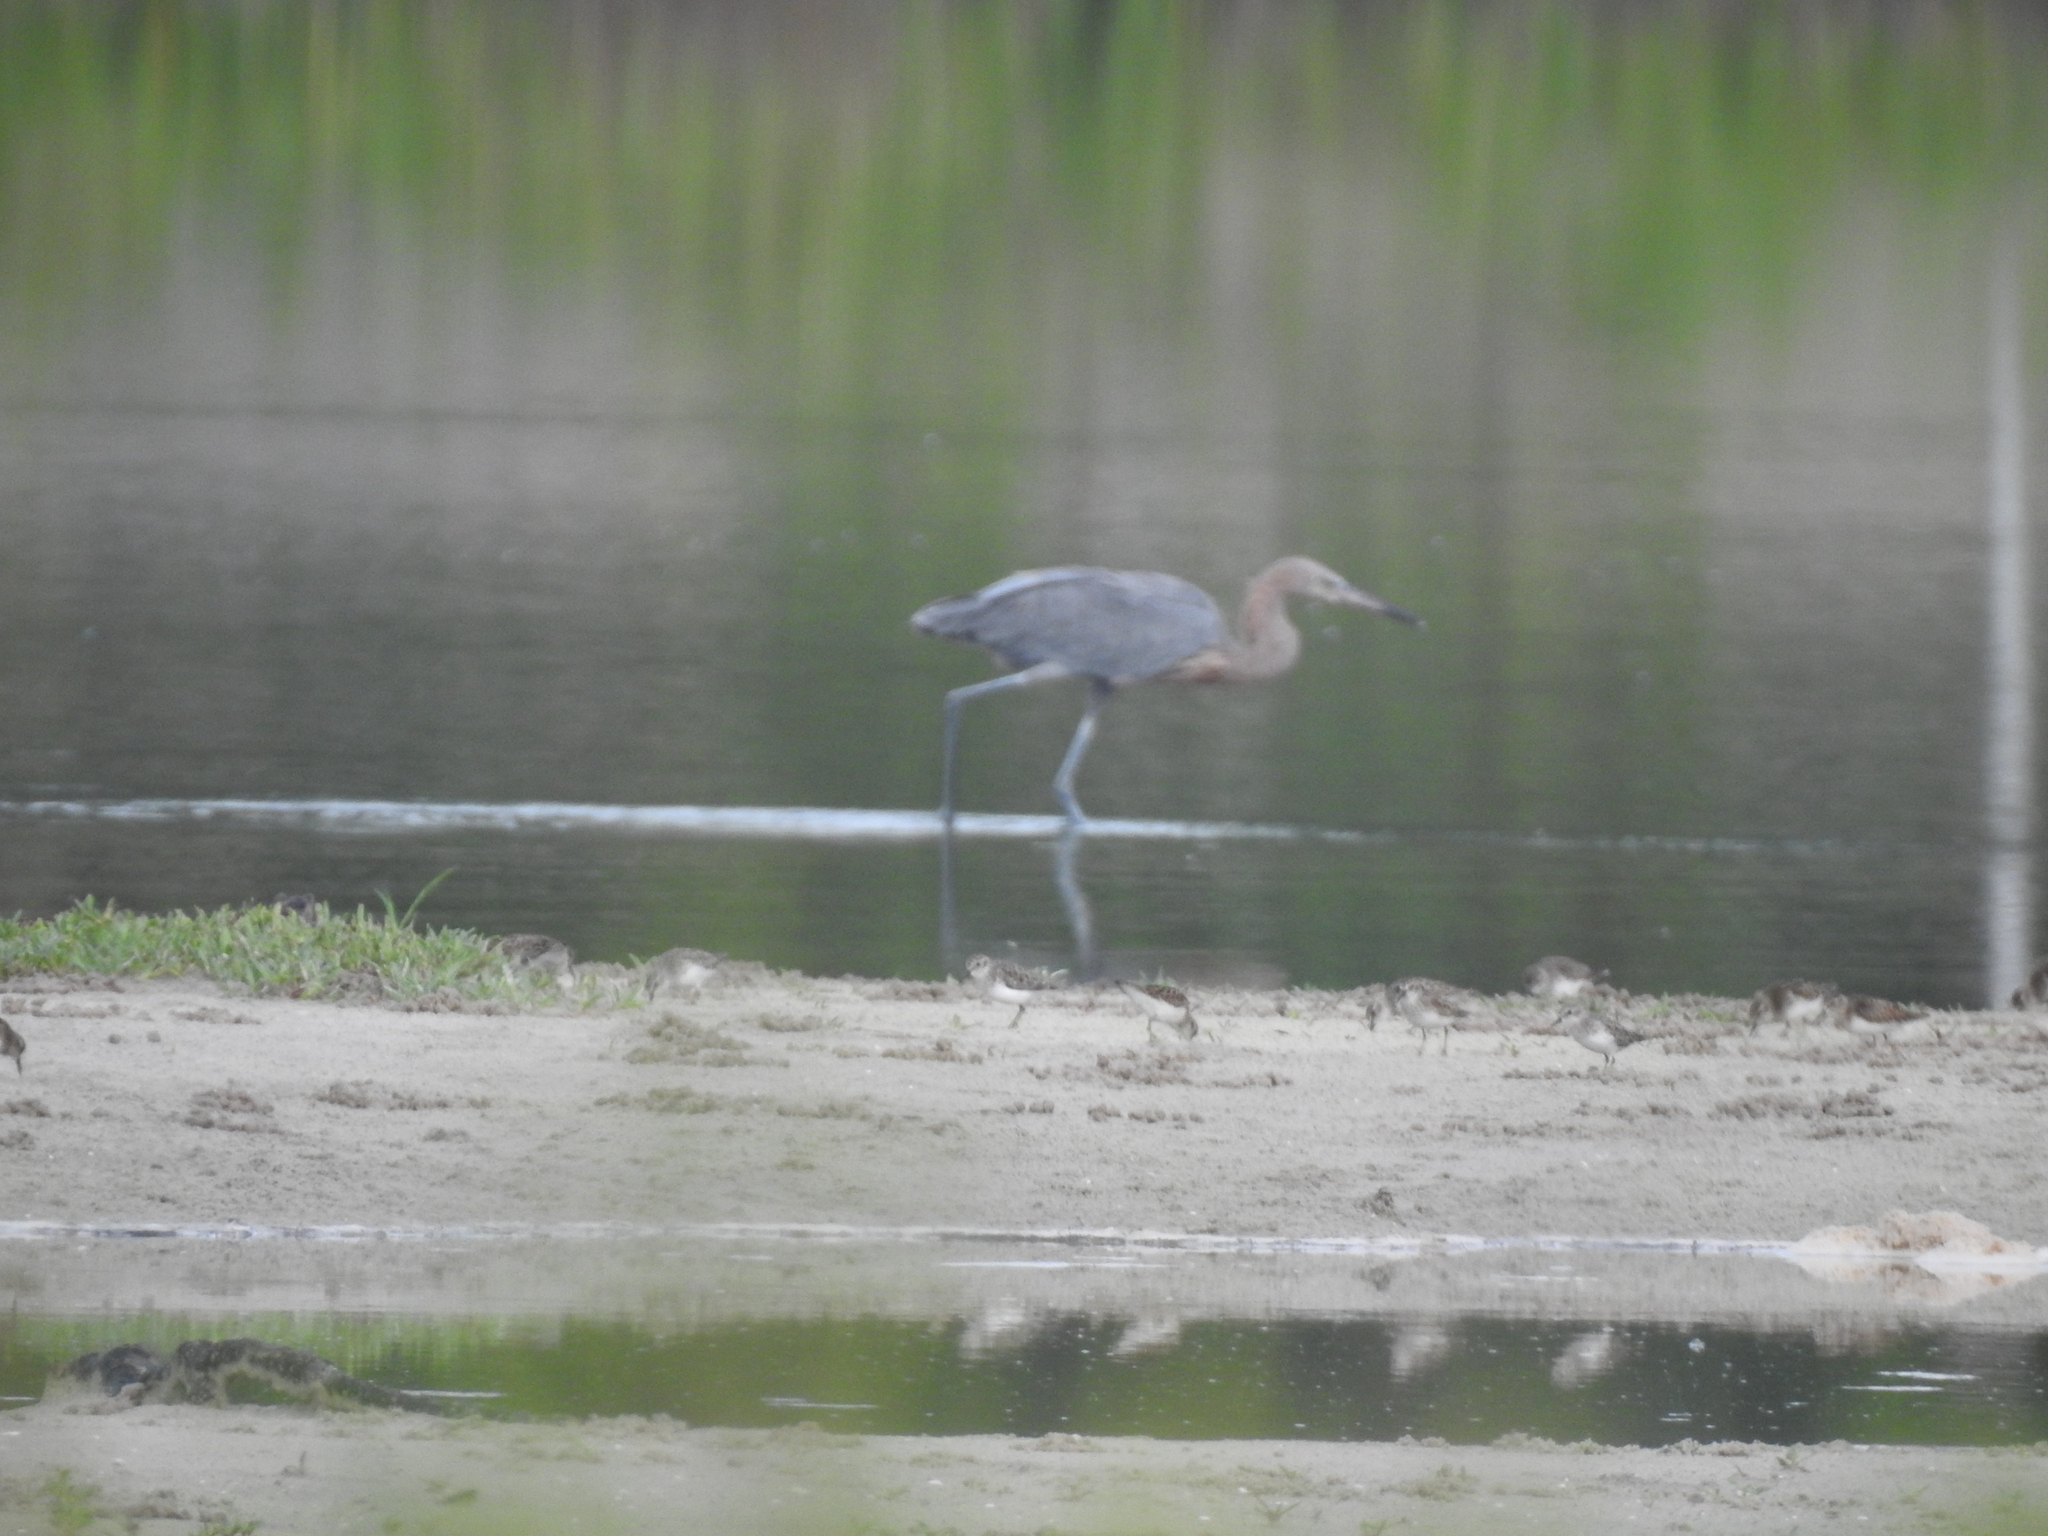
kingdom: Animalia
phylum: Chordata
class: Aves
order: Pelecaniformes
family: Ardeidae
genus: Egretta
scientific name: Egretta rufescens
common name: Reddish egret
